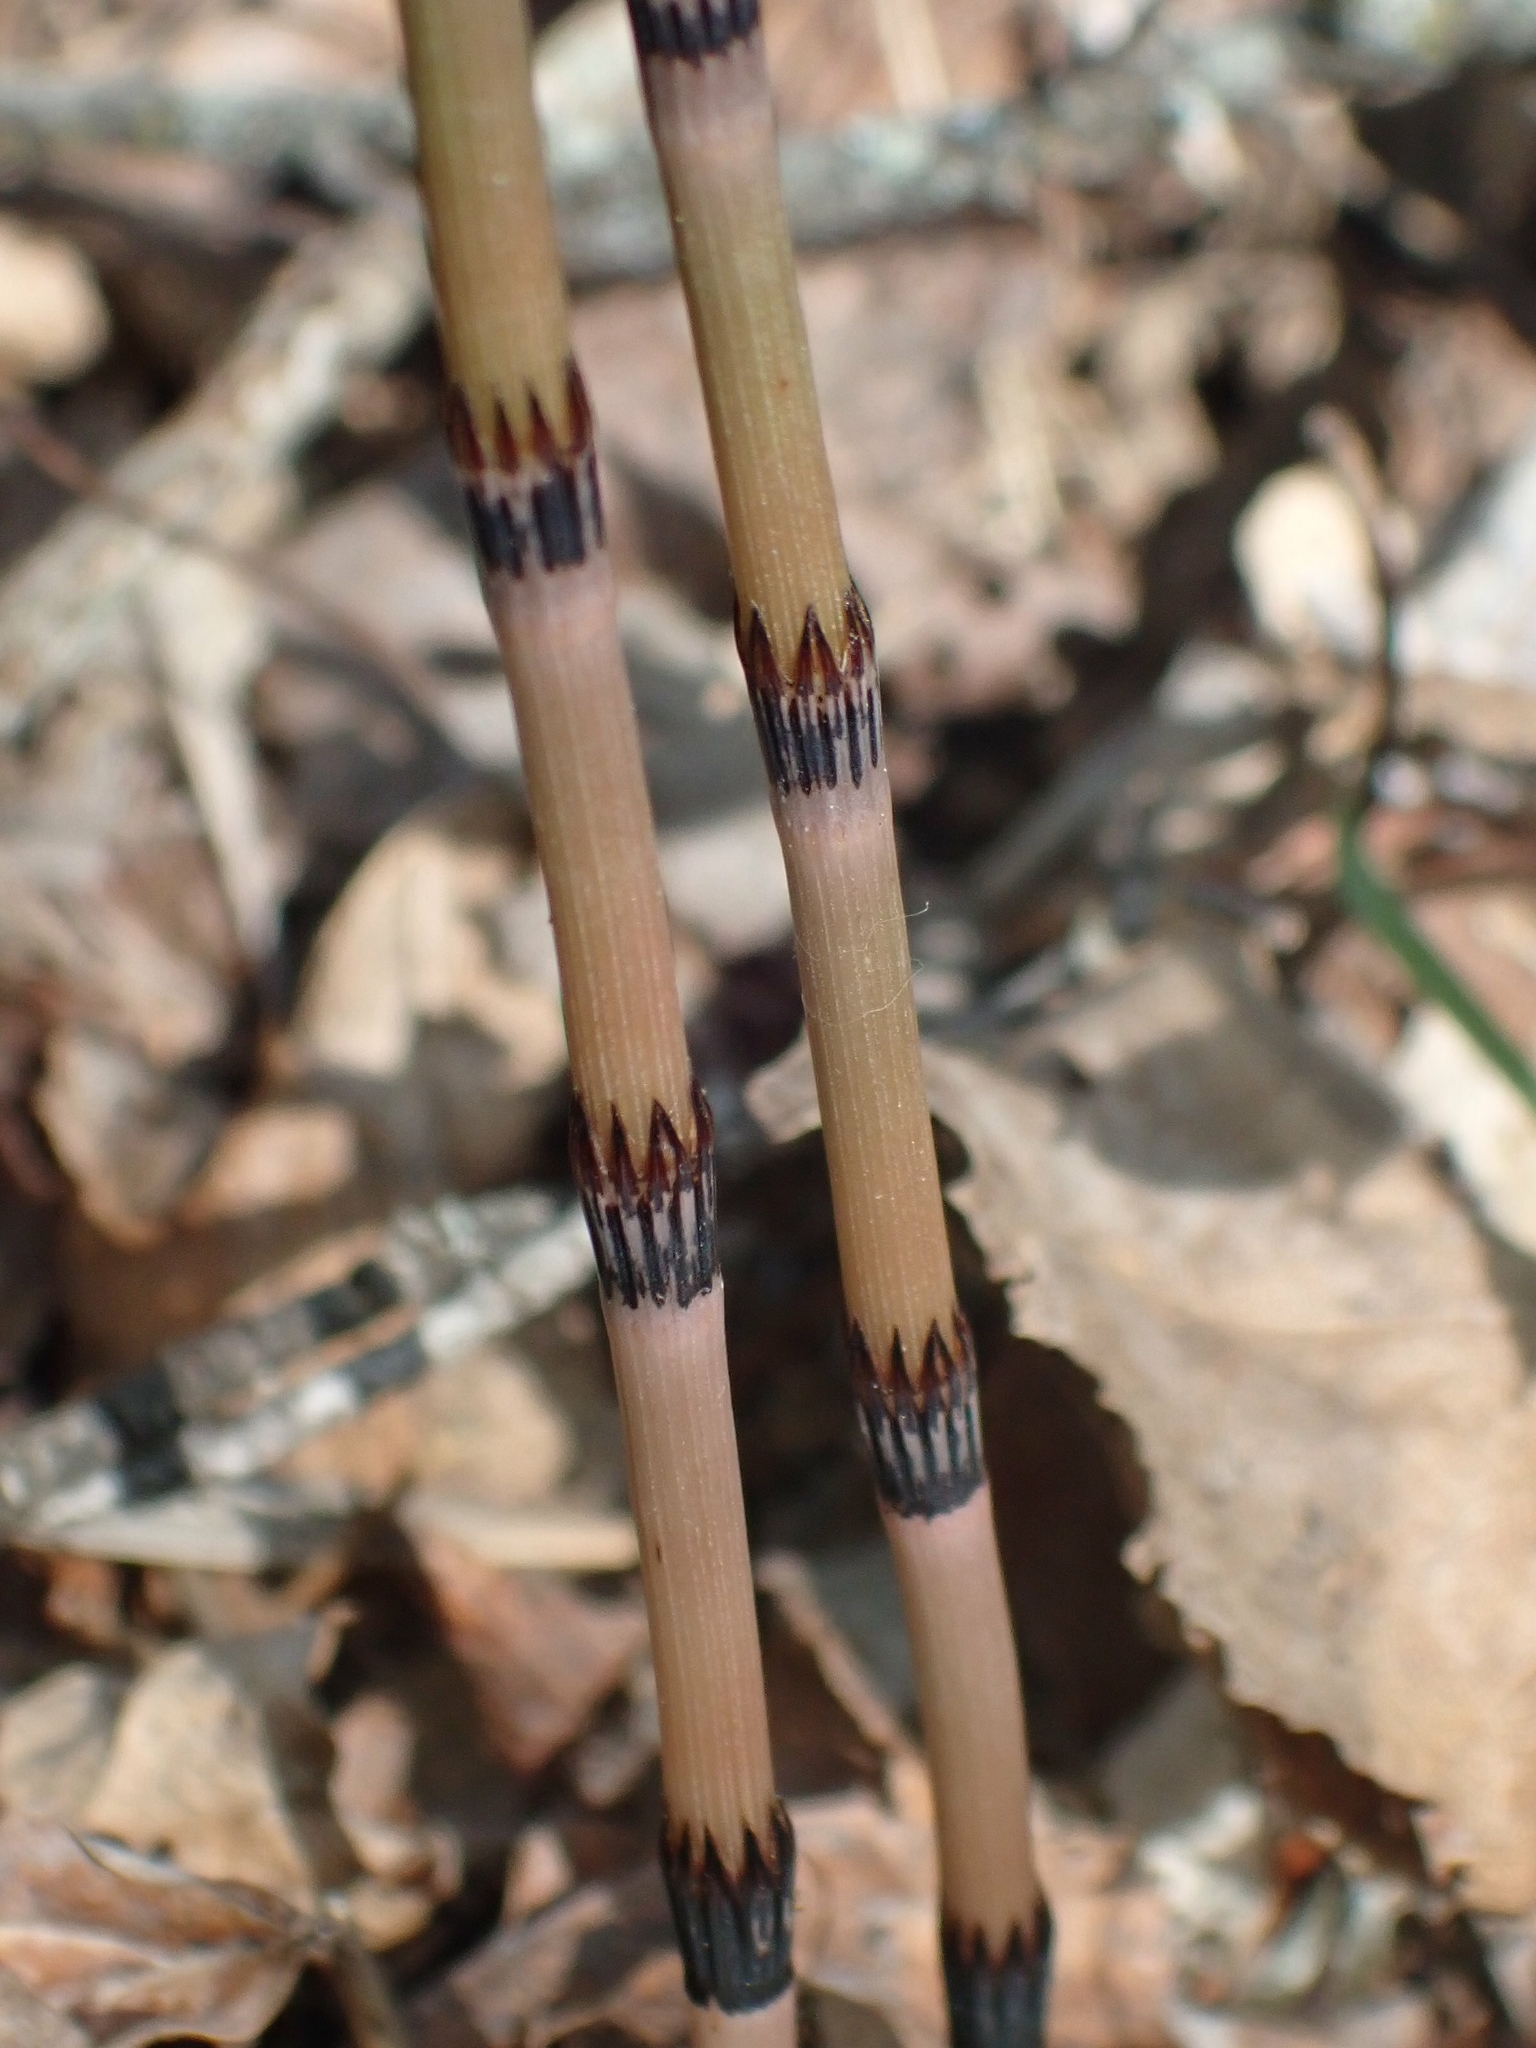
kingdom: Plantae
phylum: Tracheophyta
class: Polypodiopsida
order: Equisetales
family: Equisetaceae
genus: Equisetum
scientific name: Equisetum arvense
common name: Field horsetail
